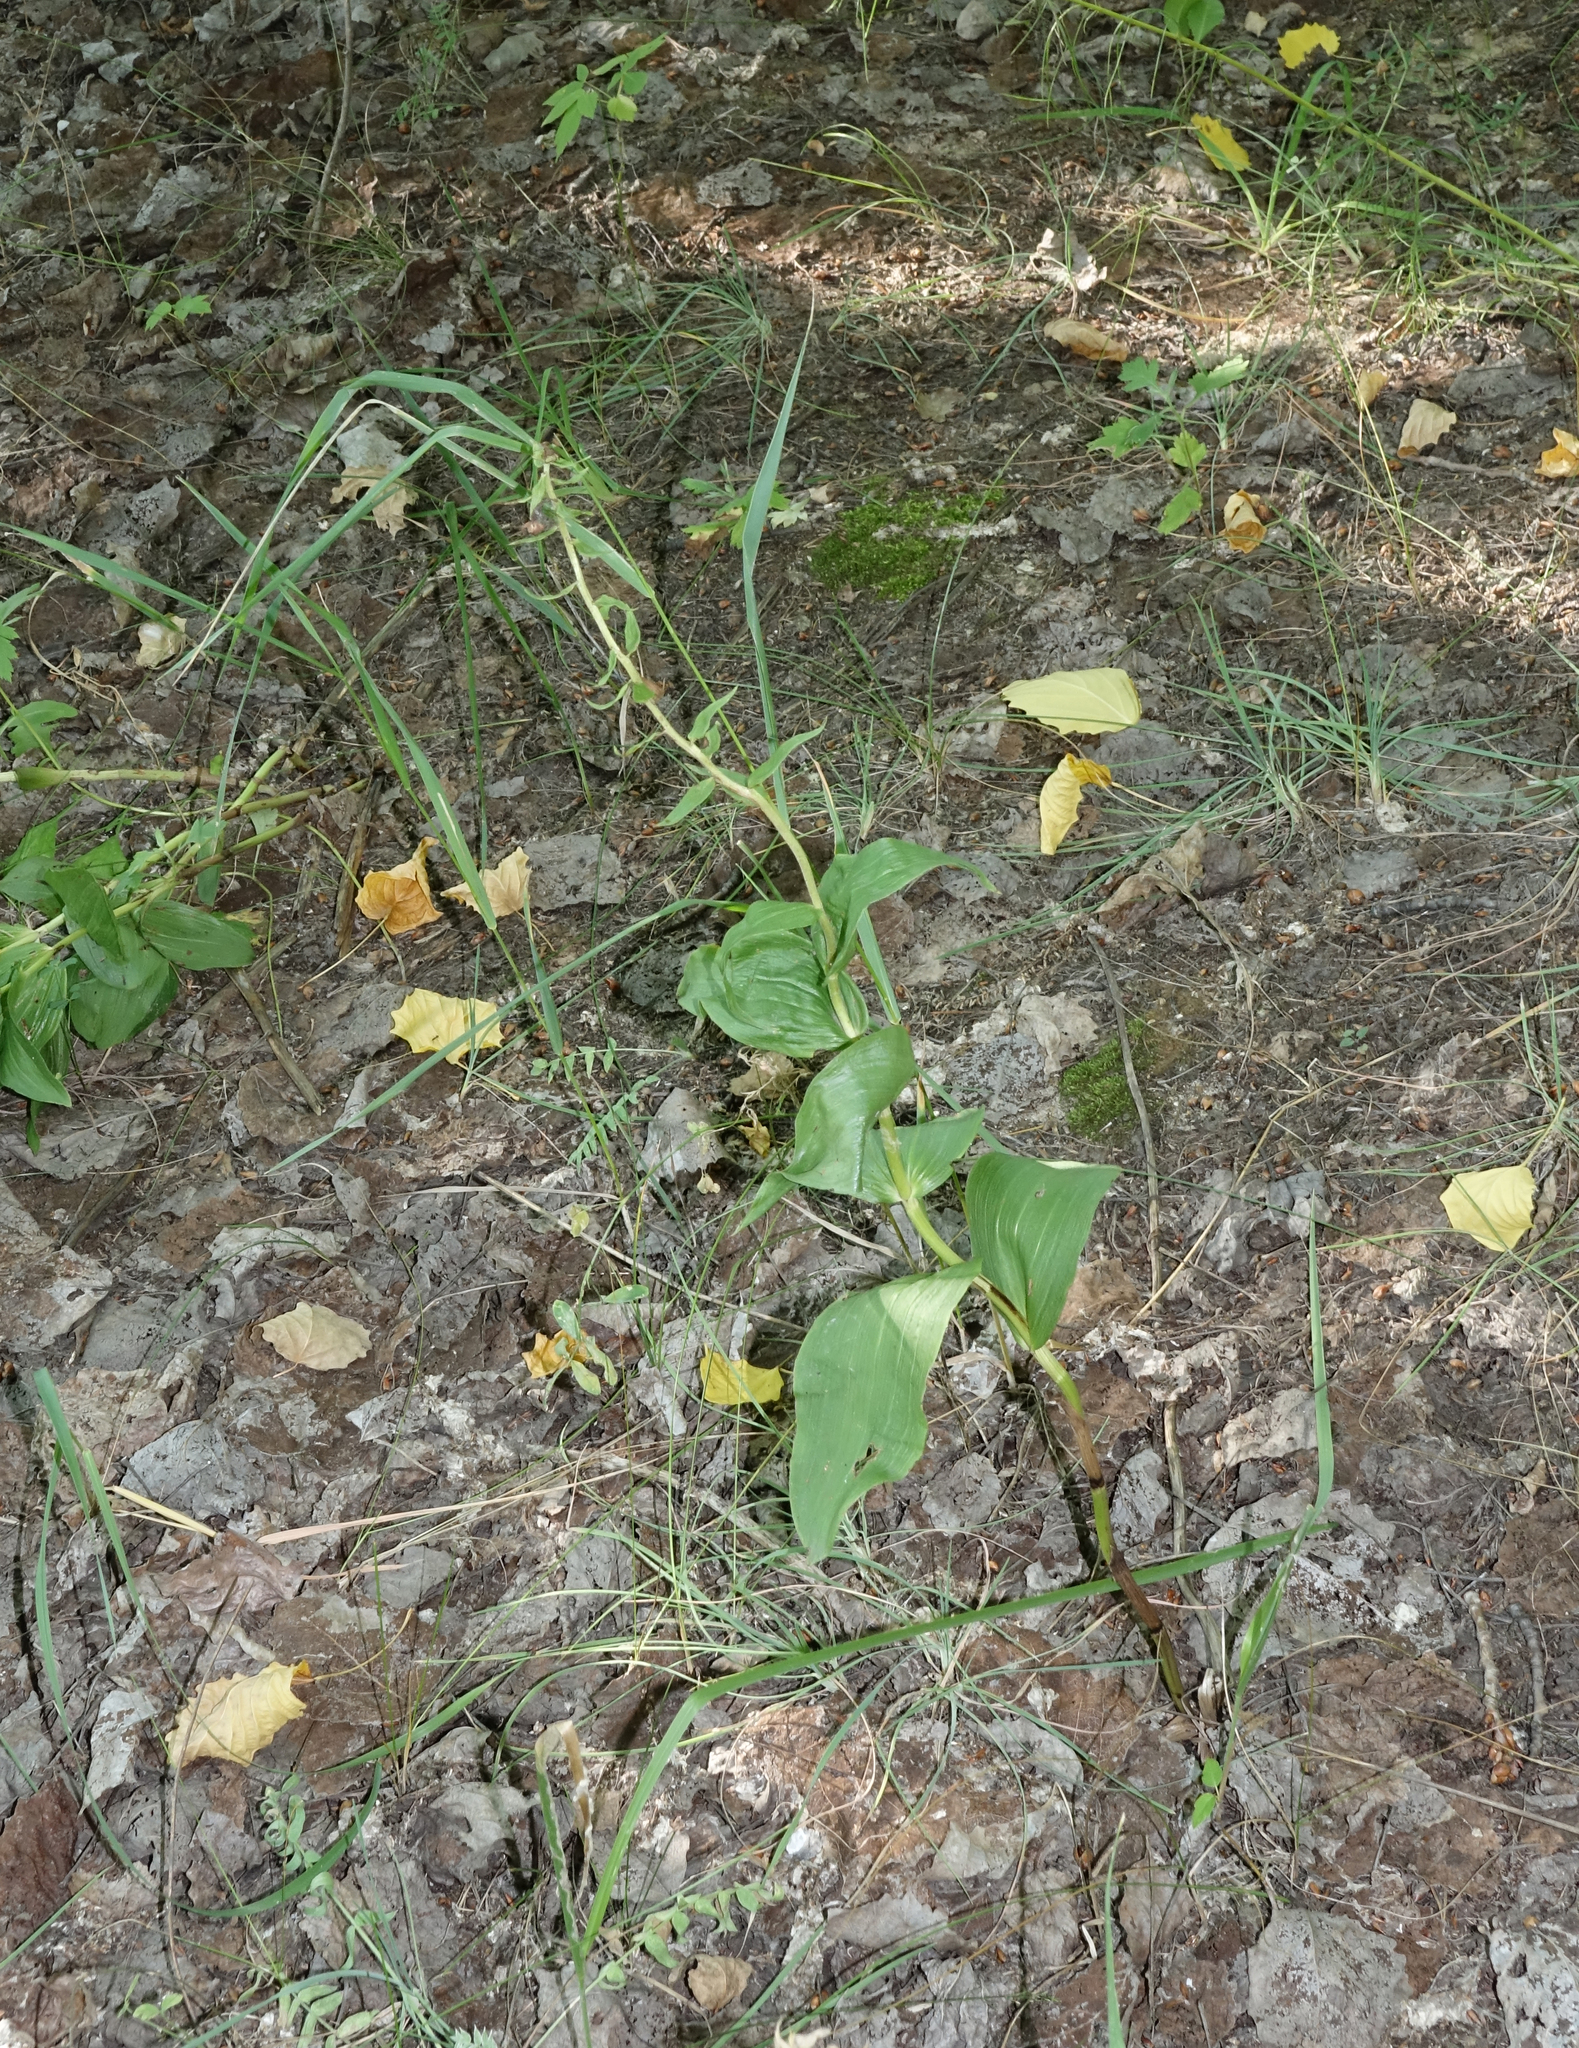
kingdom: Plantae
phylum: Tracheophyta
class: Liliopsida
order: Asparagales
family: Orchidaceae
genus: Epipactis
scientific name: Epipactis helleborine
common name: Broad-leaved helleborine
